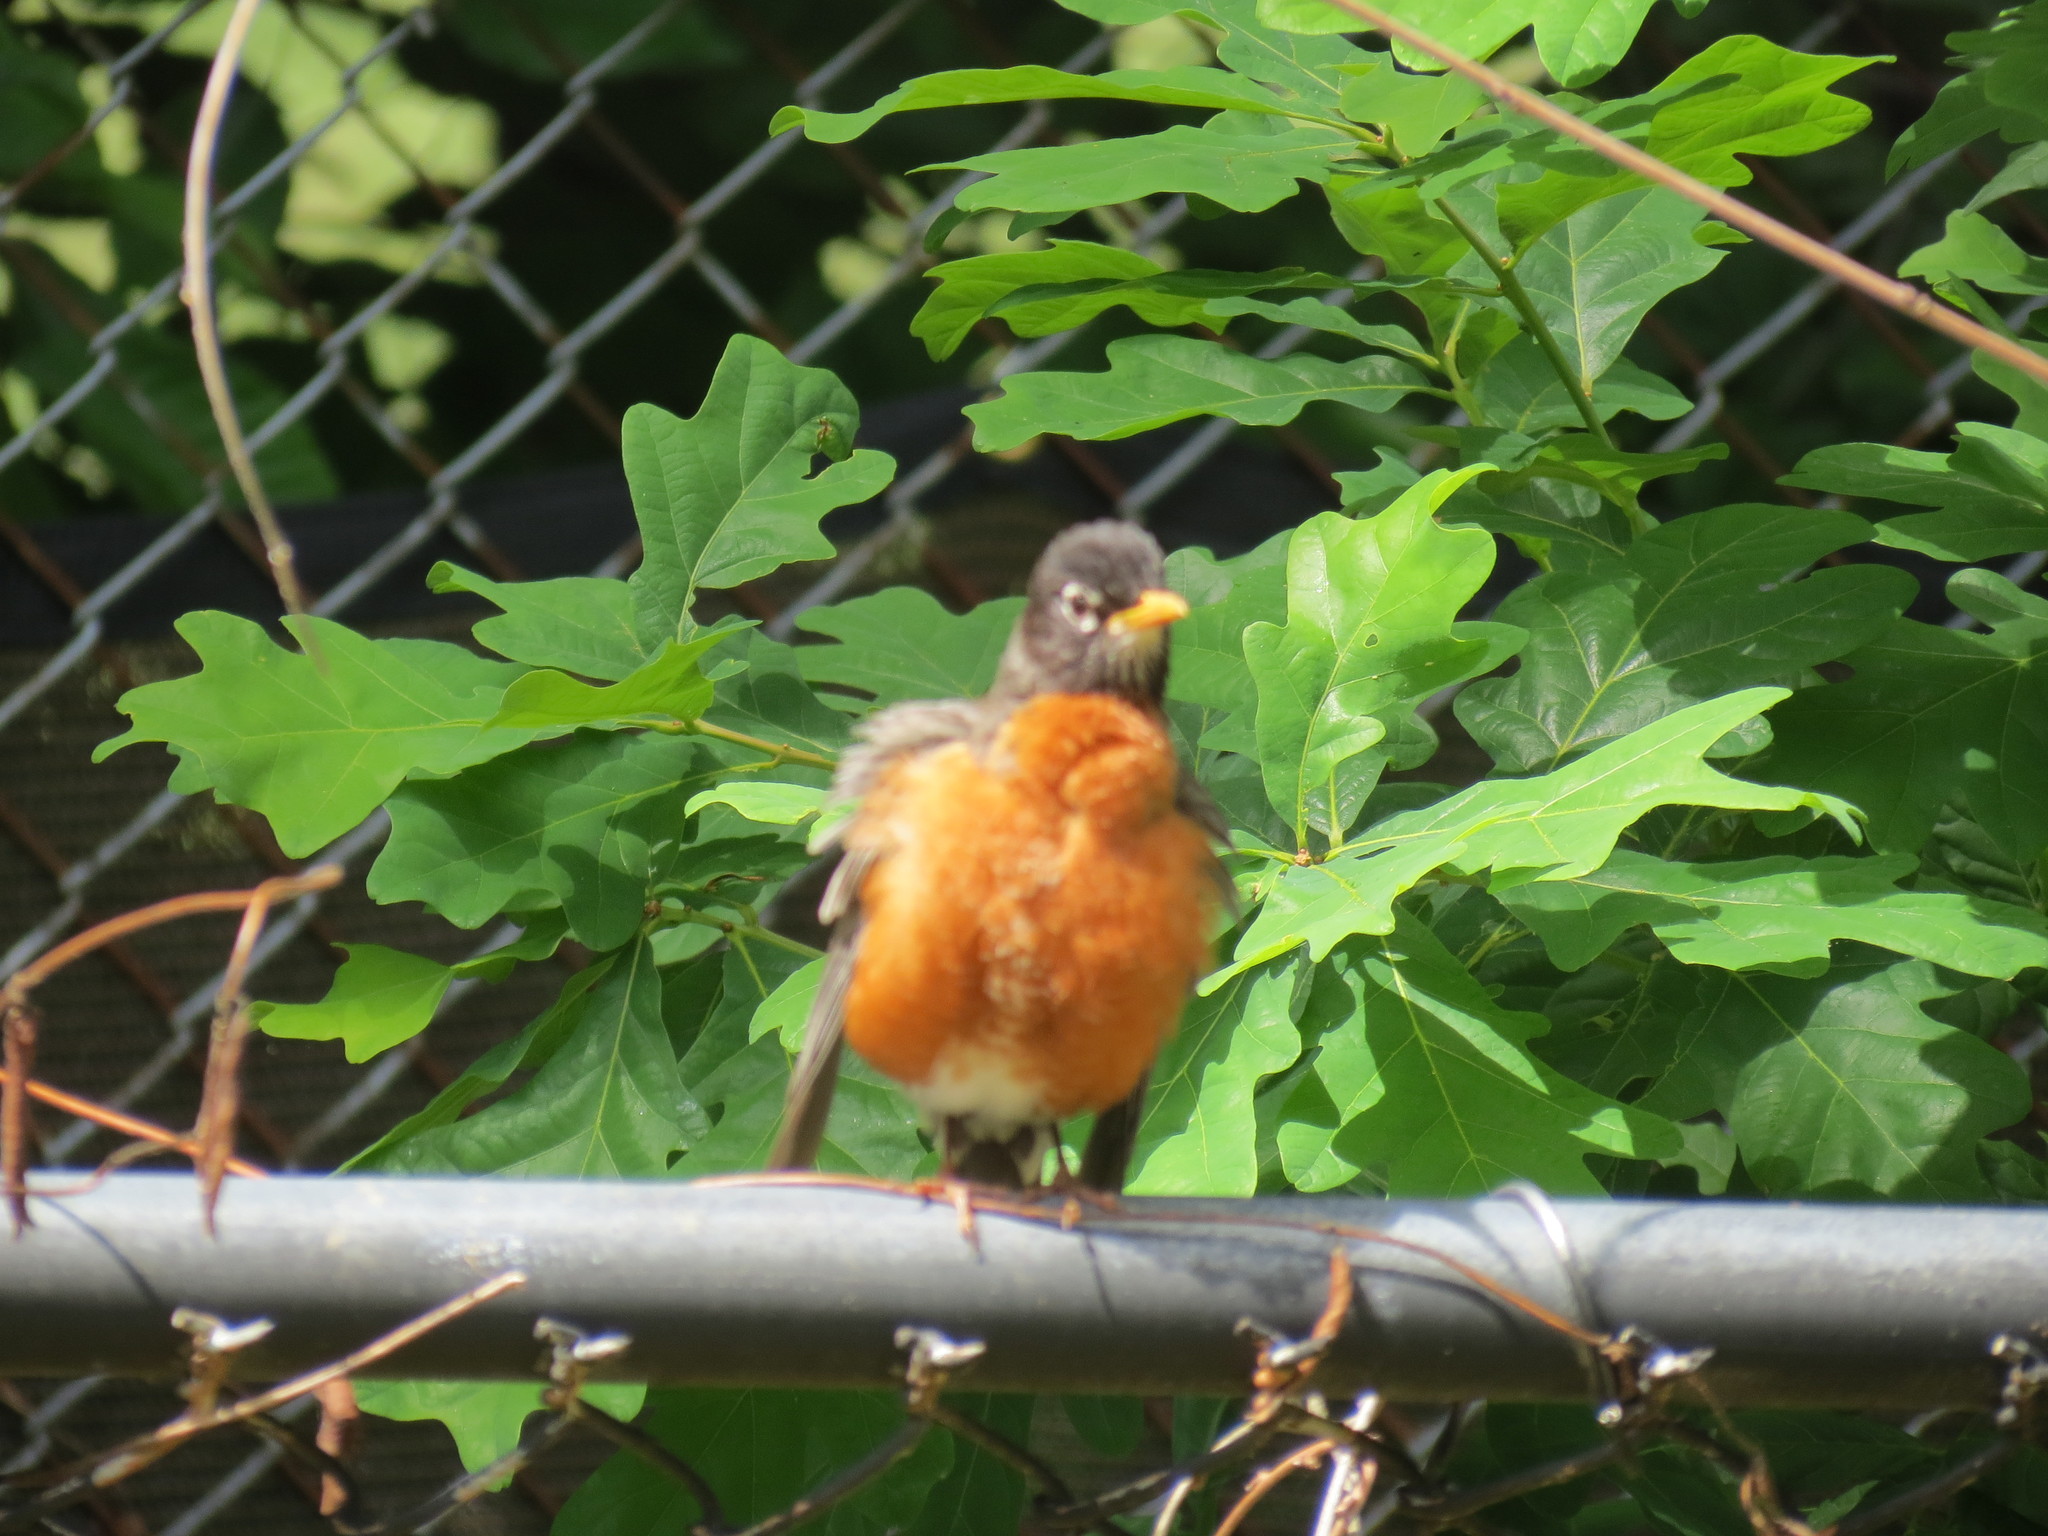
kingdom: Animalia
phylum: Chordata
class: Aves
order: Passeriformes
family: Turdidae
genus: Turdus
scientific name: Turdus migratorius
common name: American robin
